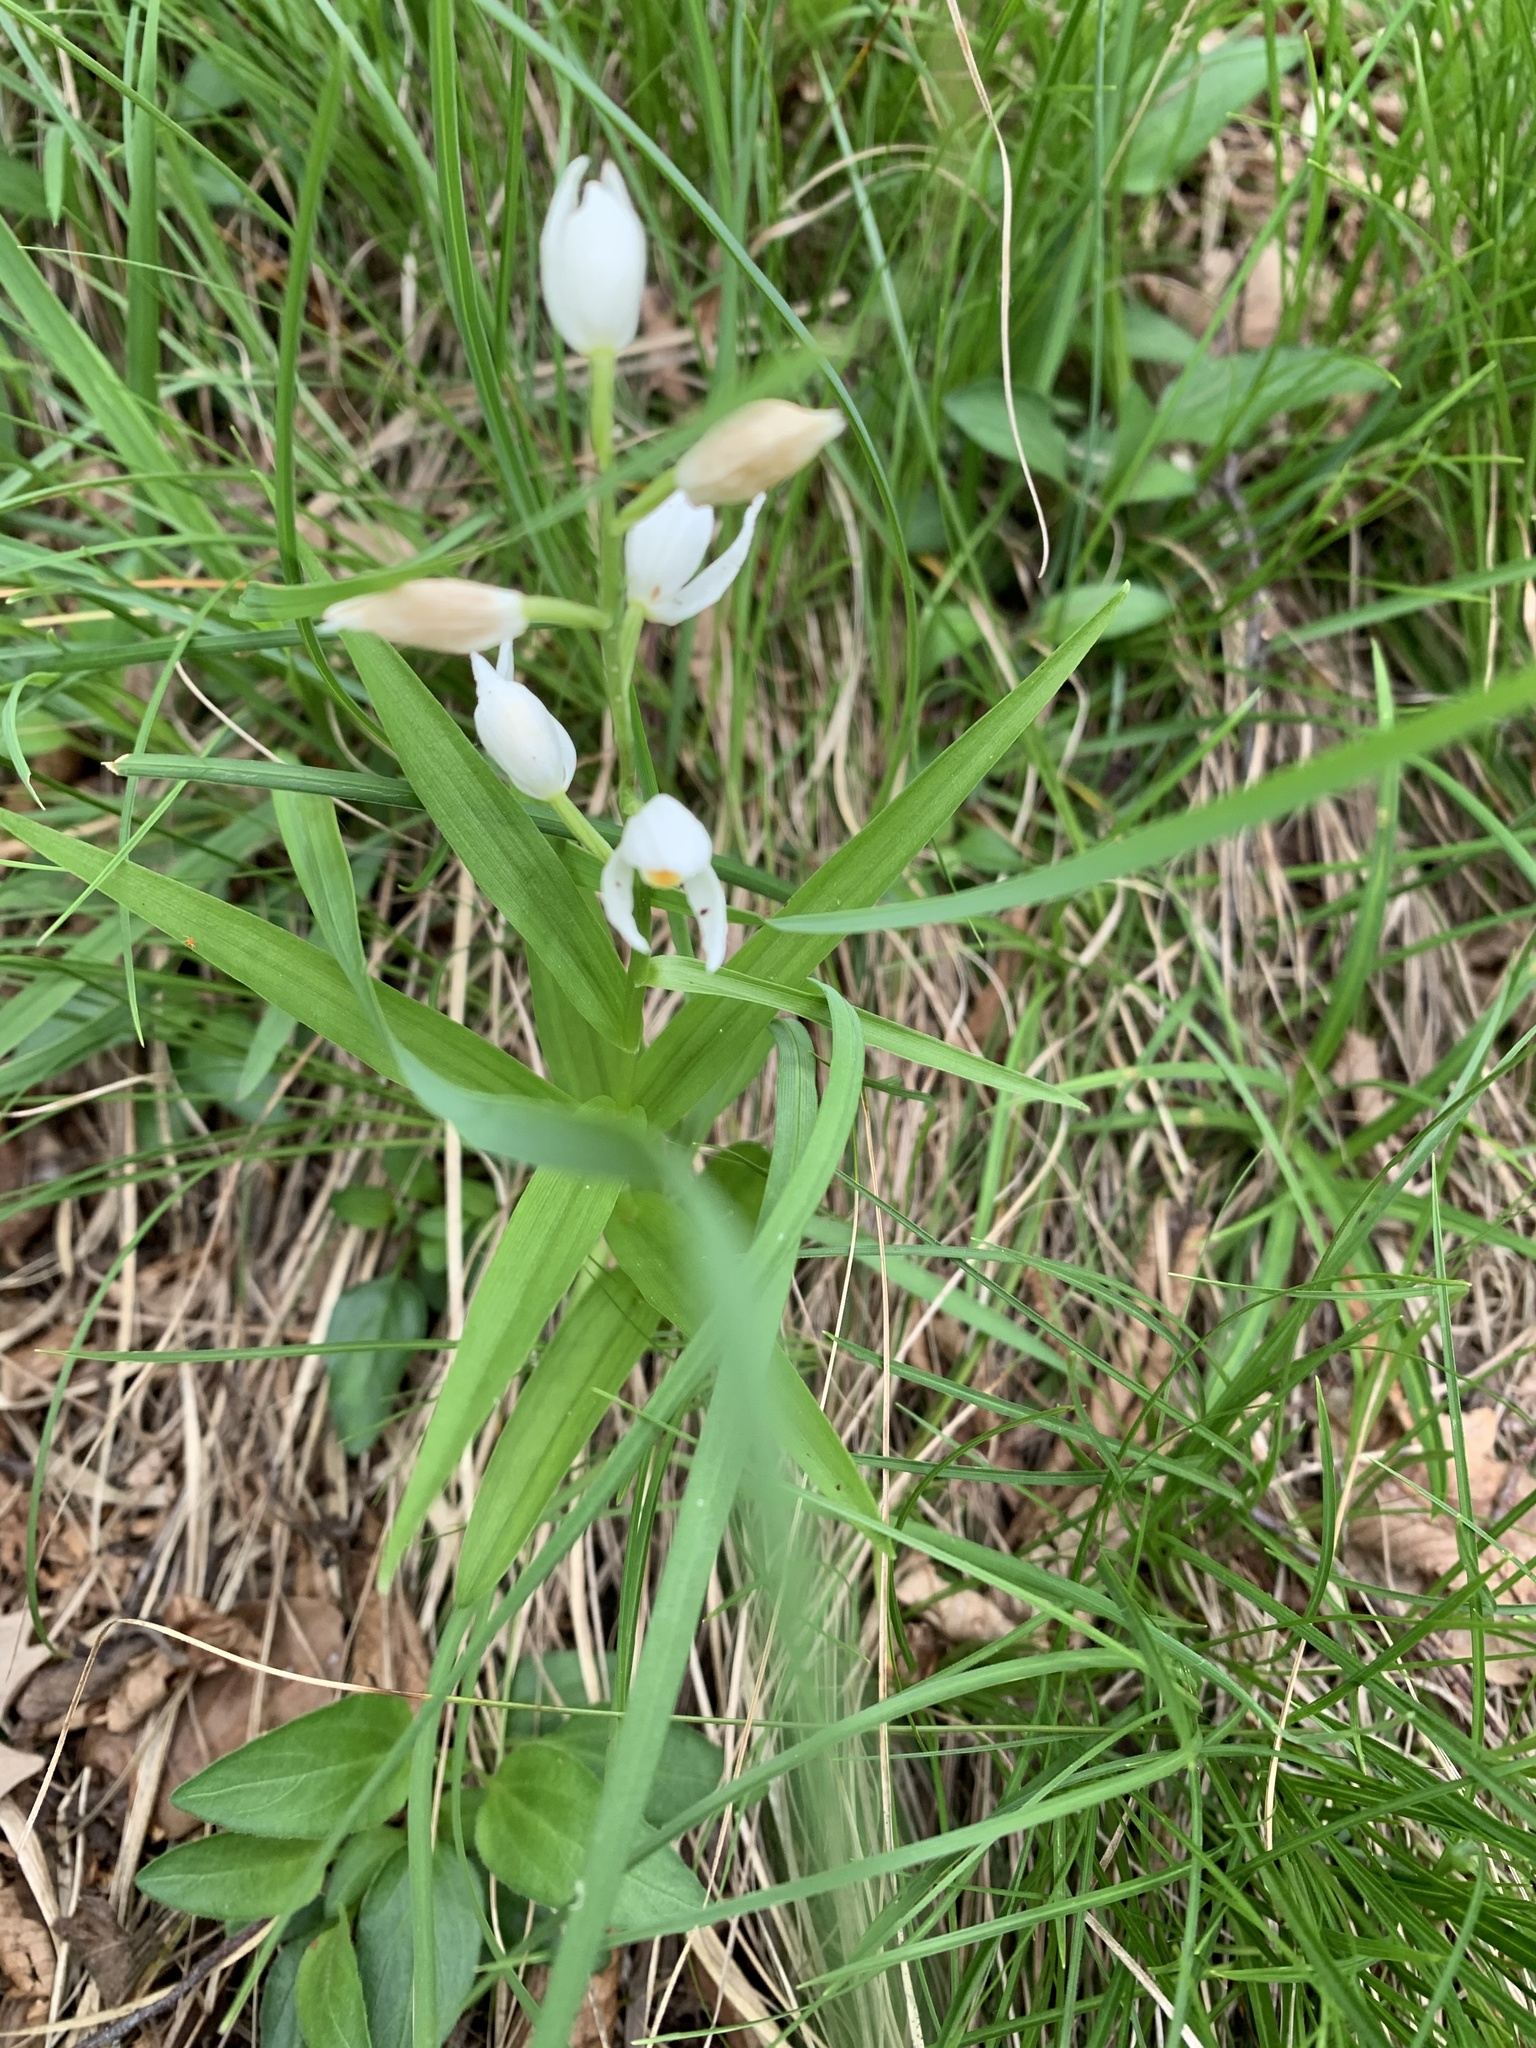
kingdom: Plantae
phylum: Tracheophyta
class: Liliopsida
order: Asparagales
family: Orchidaceae
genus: Cephalanthera
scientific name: Cephalanthera longifolia
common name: Narrow-leaved helleborine
